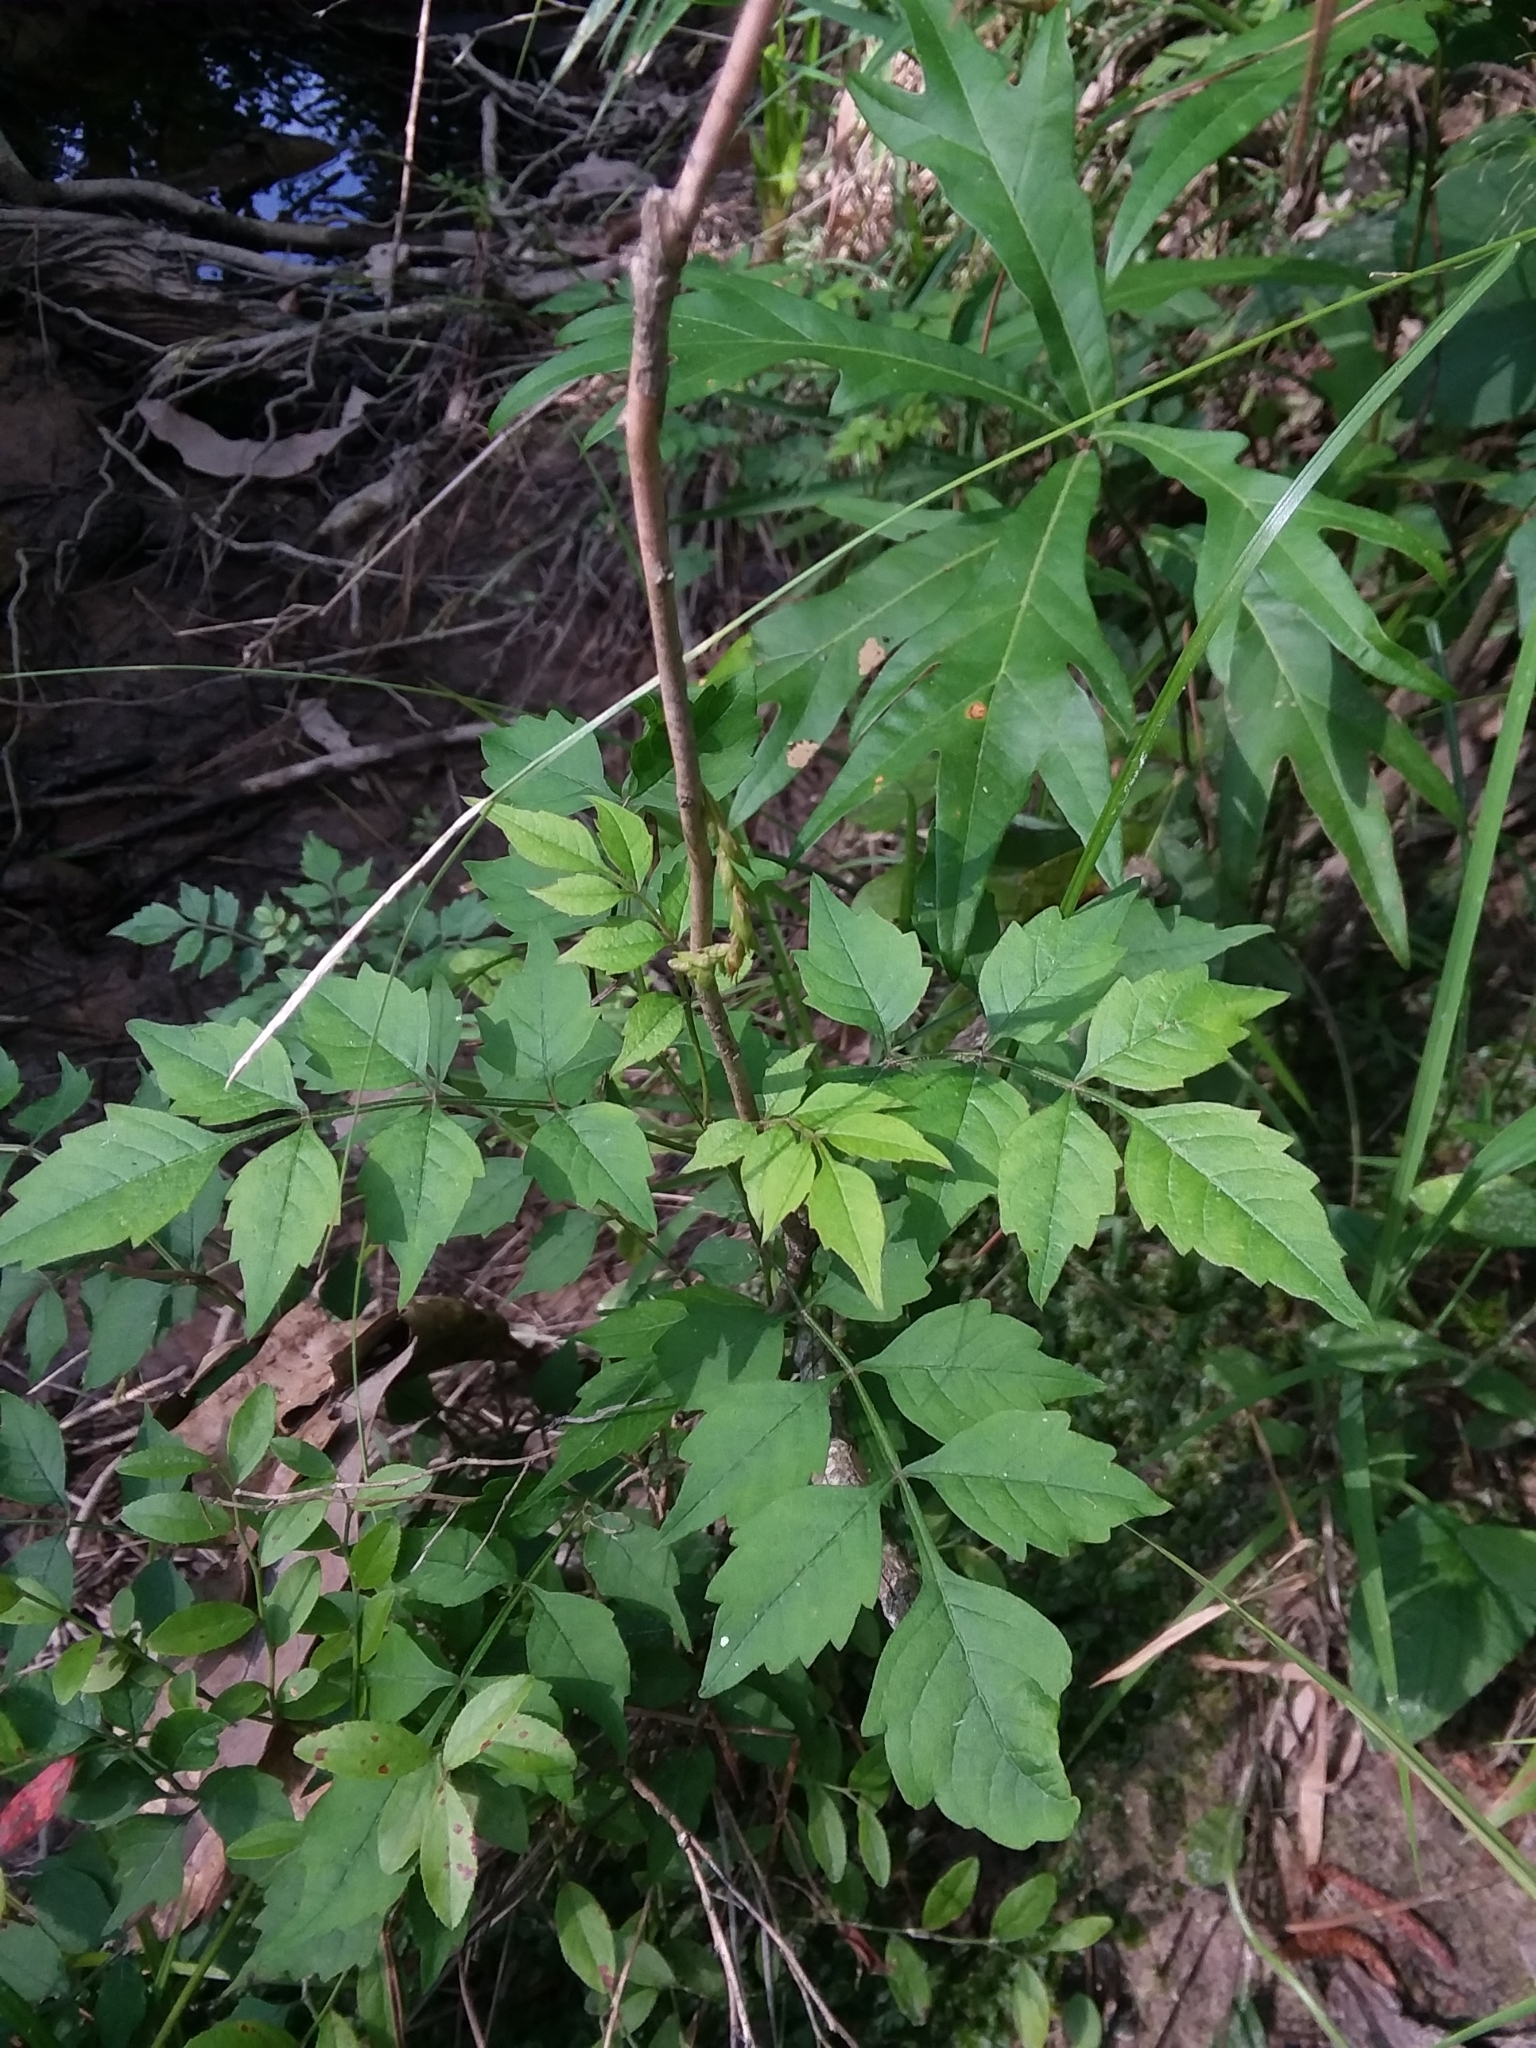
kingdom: Plantae
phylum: Tracheophyta
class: Magnoliopsida
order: Lamiales
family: Bignoniaceae
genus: Campsis
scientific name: Campsis radicans
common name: Trumpet-creeper
